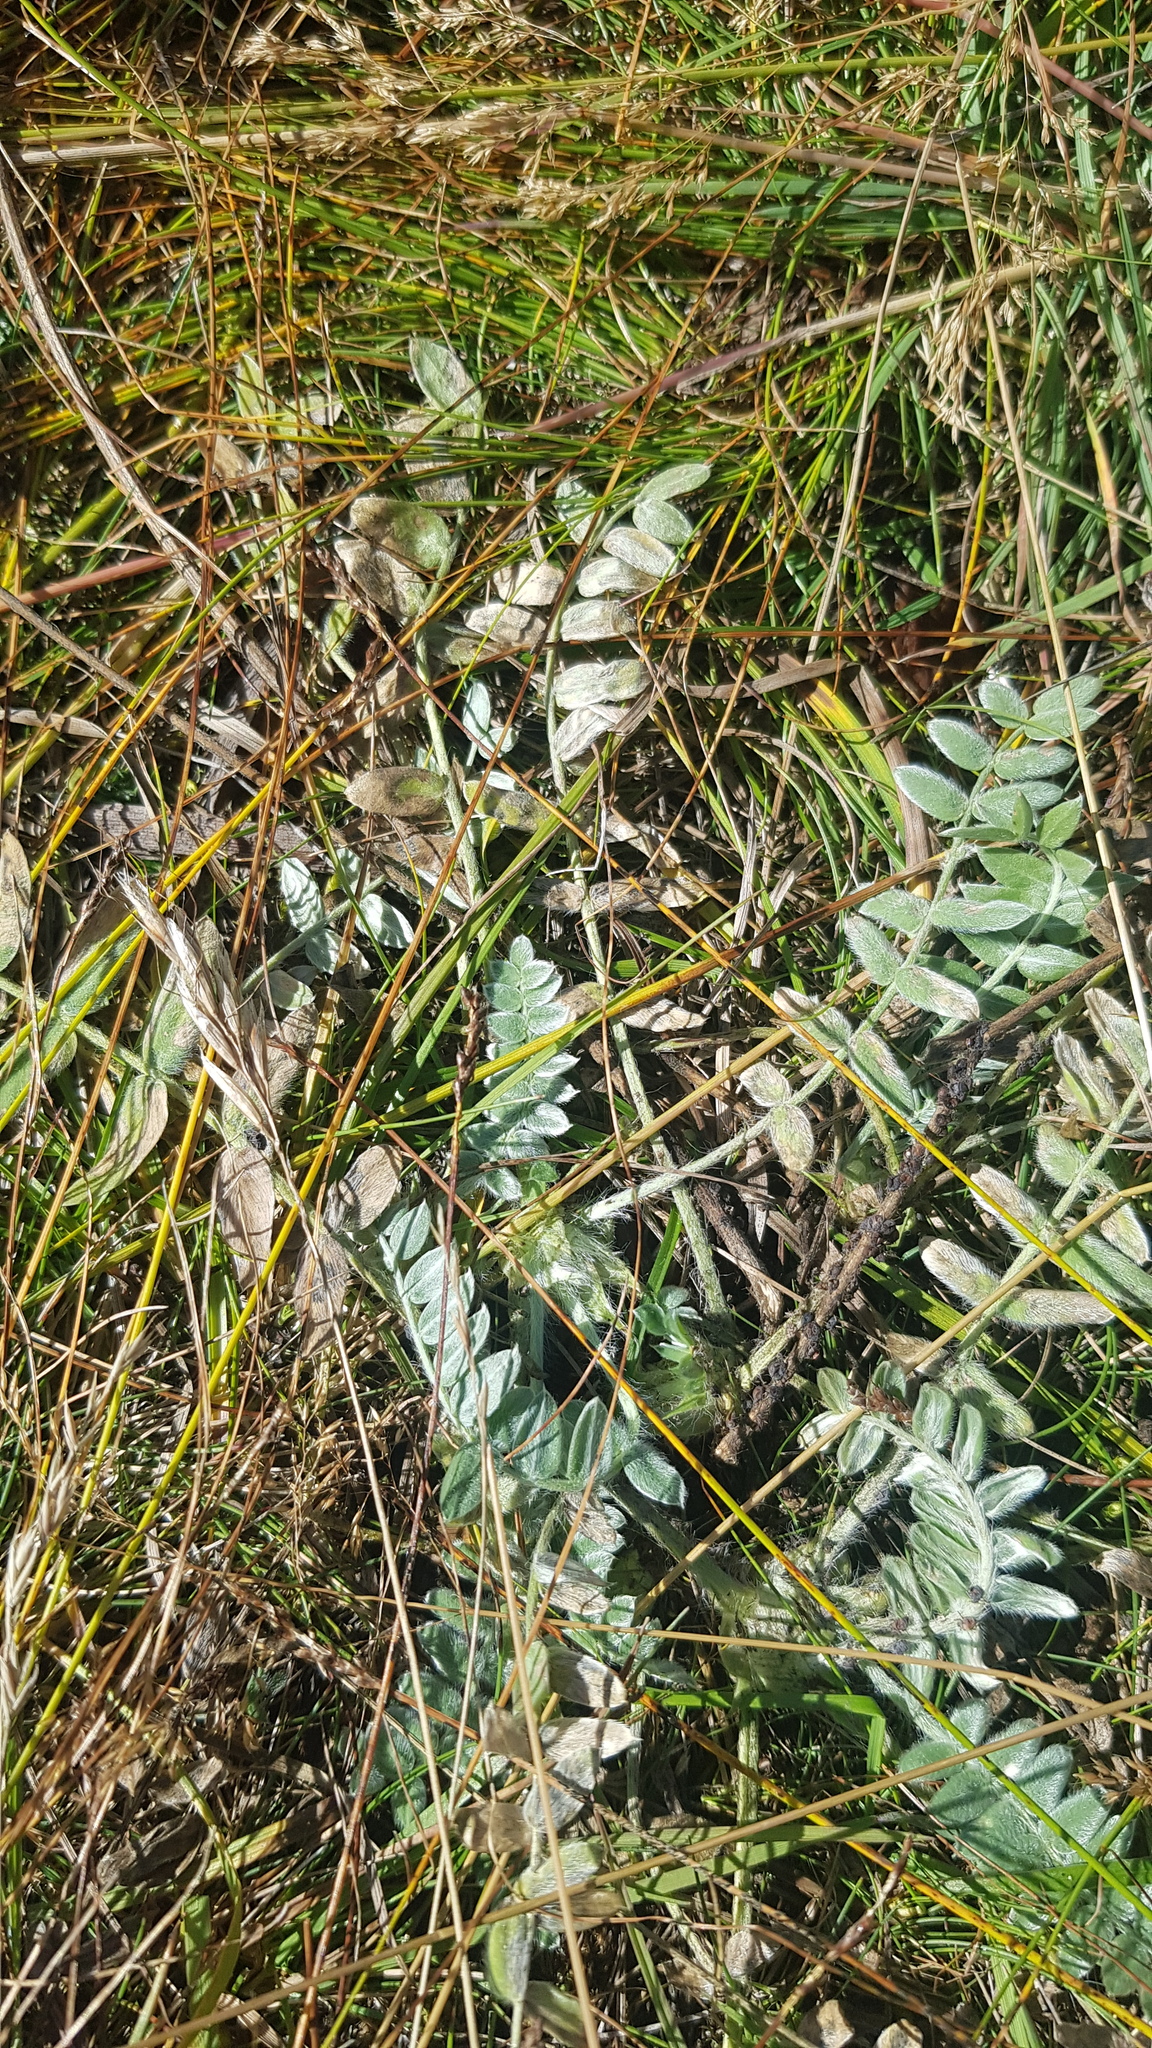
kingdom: Plantae
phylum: Tracheophyta
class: Magnoliopsida
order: Fabales
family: Fabaceae
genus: Oxytropis
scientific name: Oxytropis deflexa
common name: Stemmed oxytrope
